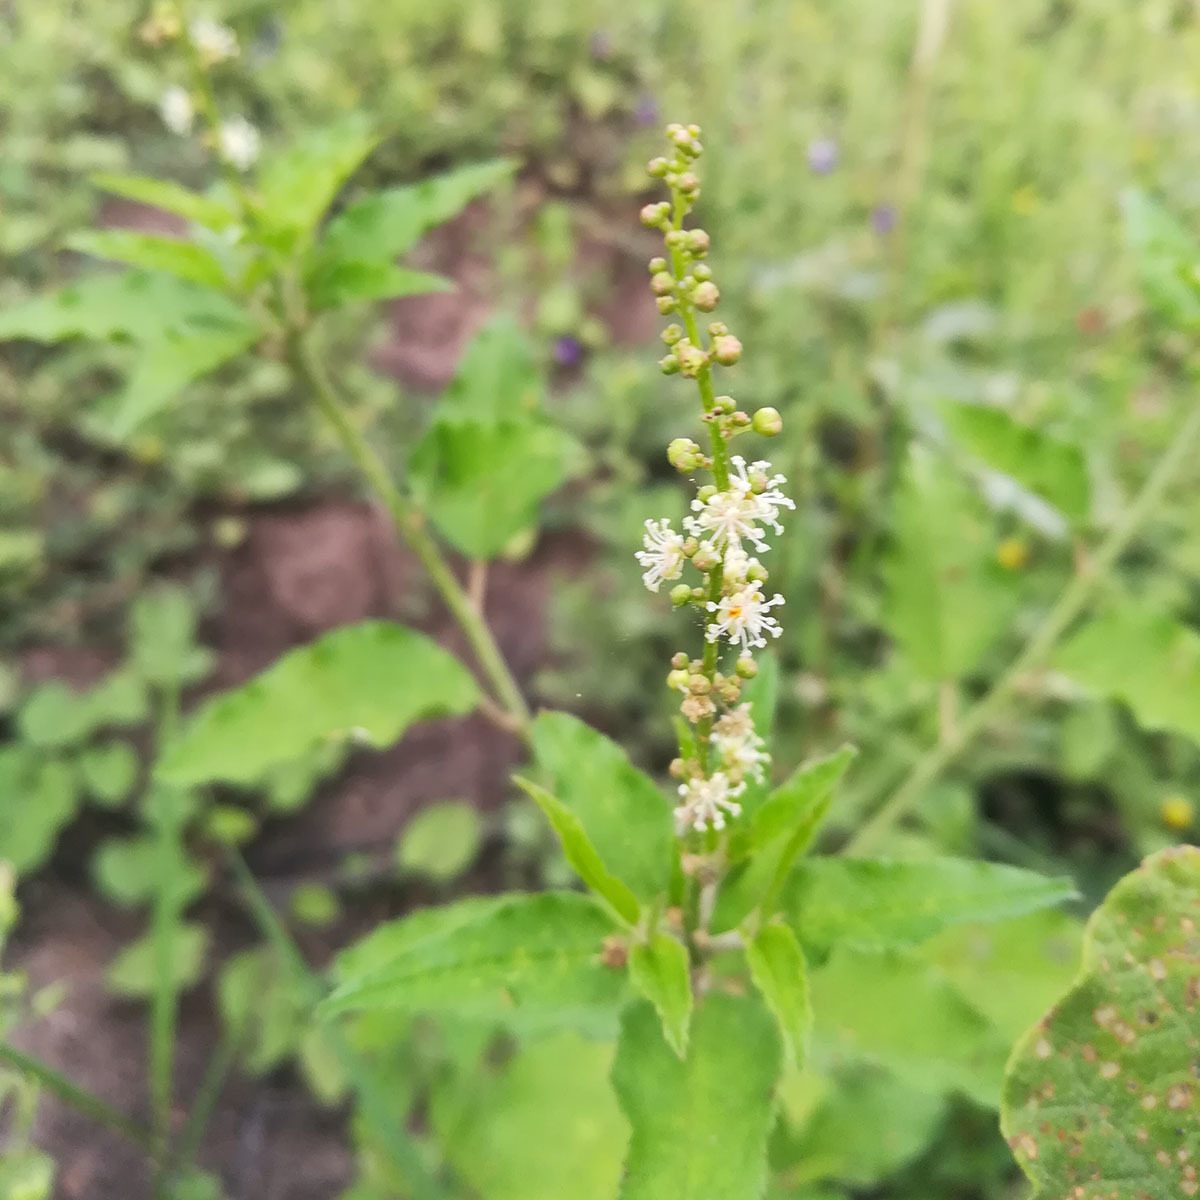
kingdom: Plantae
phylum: Tracheophyta
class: Magnoliopsida
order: Malpighiales
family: Euphorbiaceae
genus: Croton
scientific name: Croton bonplandianus
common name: Bonpland's croton
